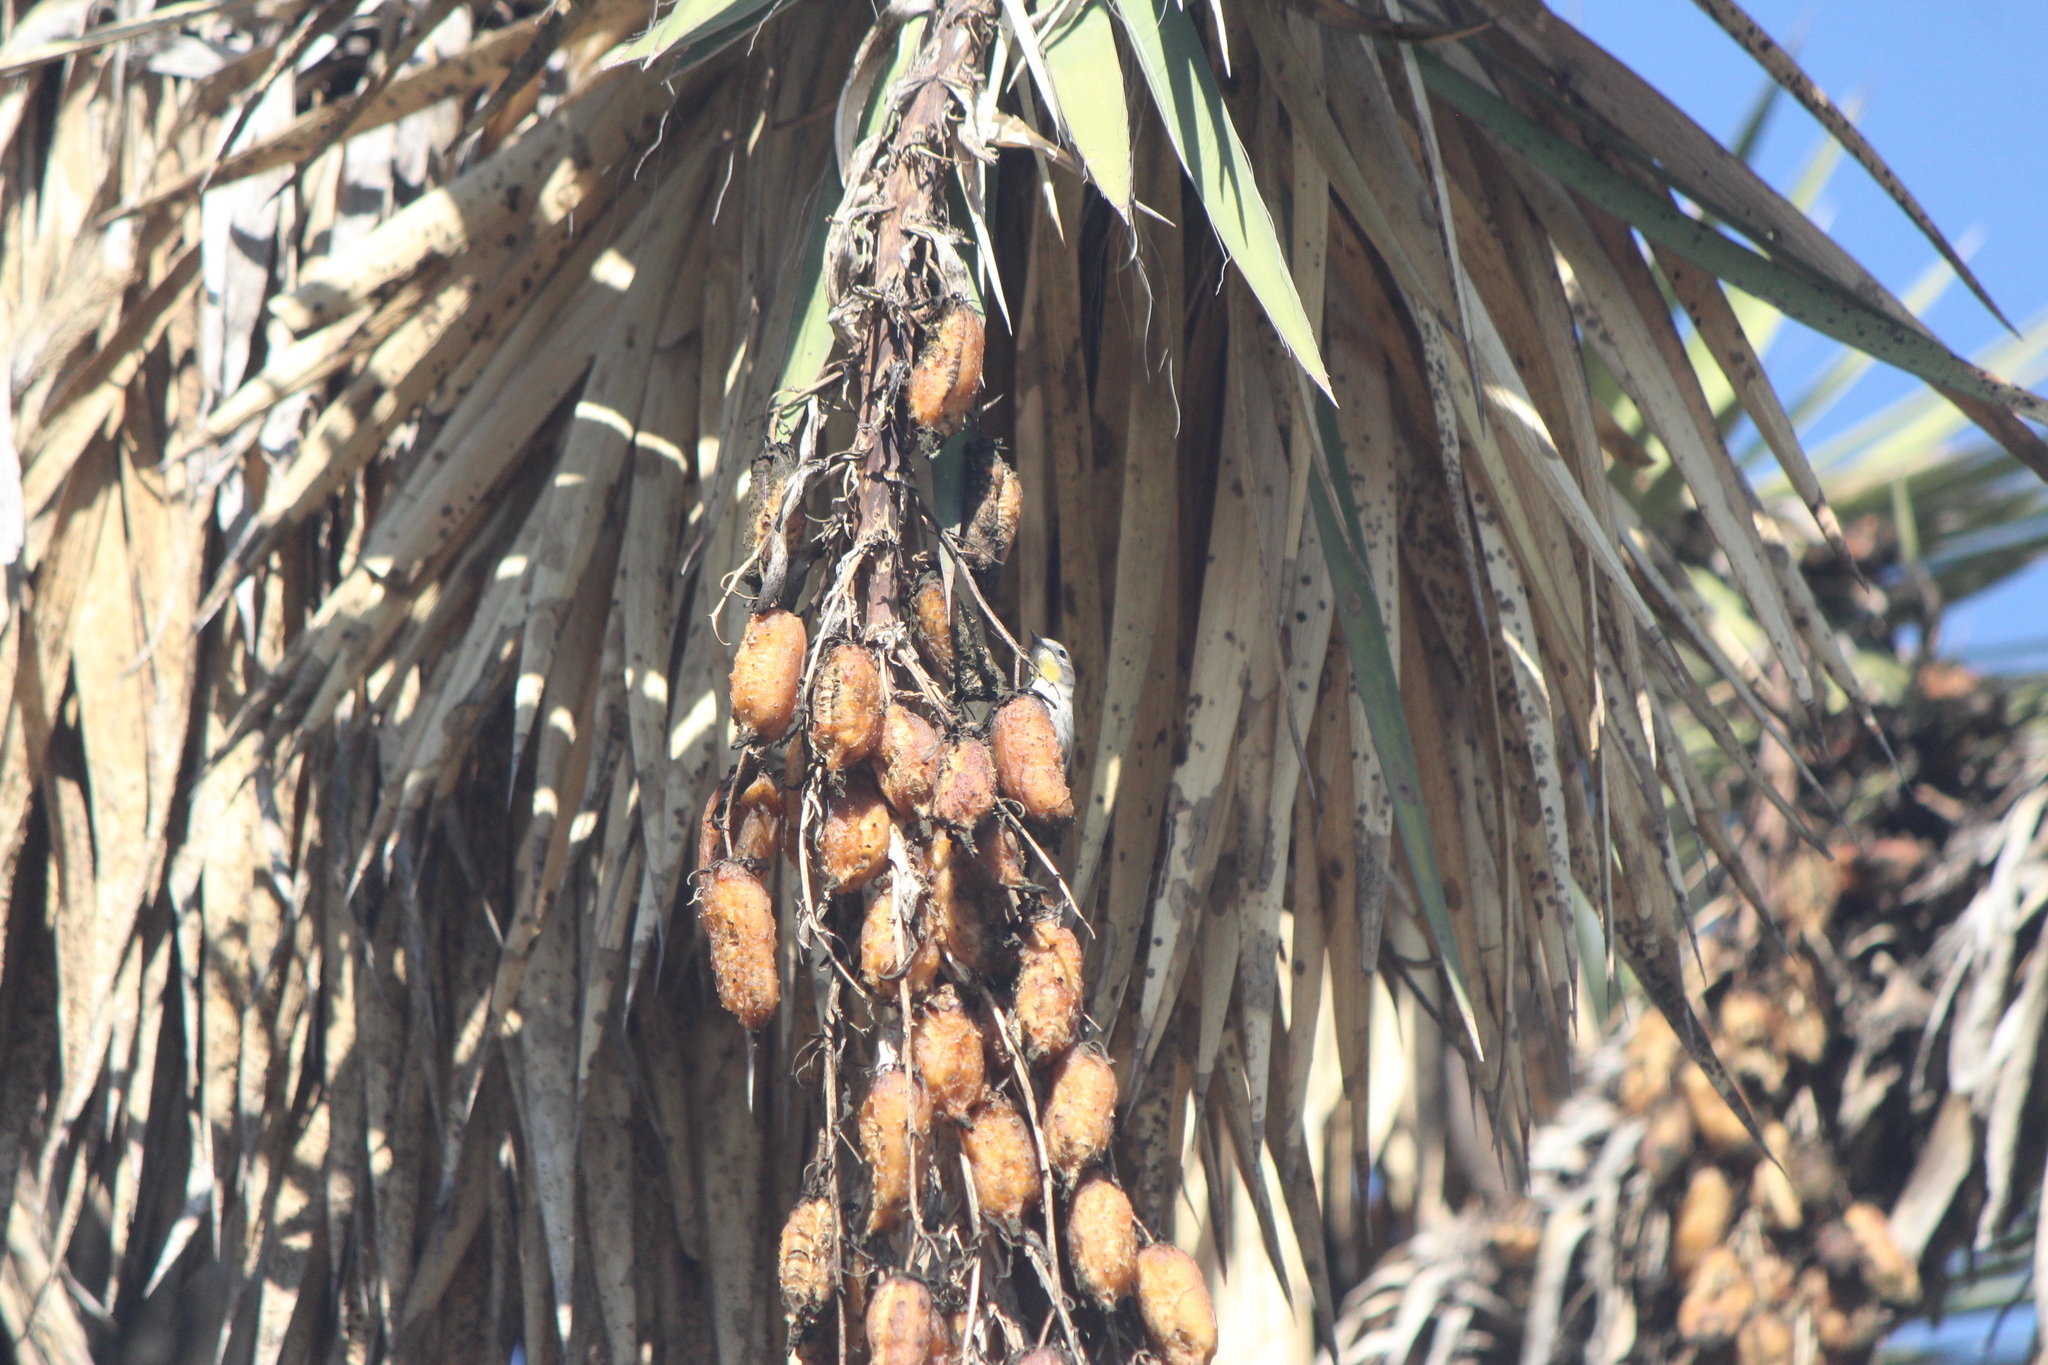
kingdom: Animalia
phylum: Chordata
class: Aves
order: Passeriformes
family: Parulidae
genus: Setophaga
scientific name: Setophaga auduboni
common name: Audubon's warbler
